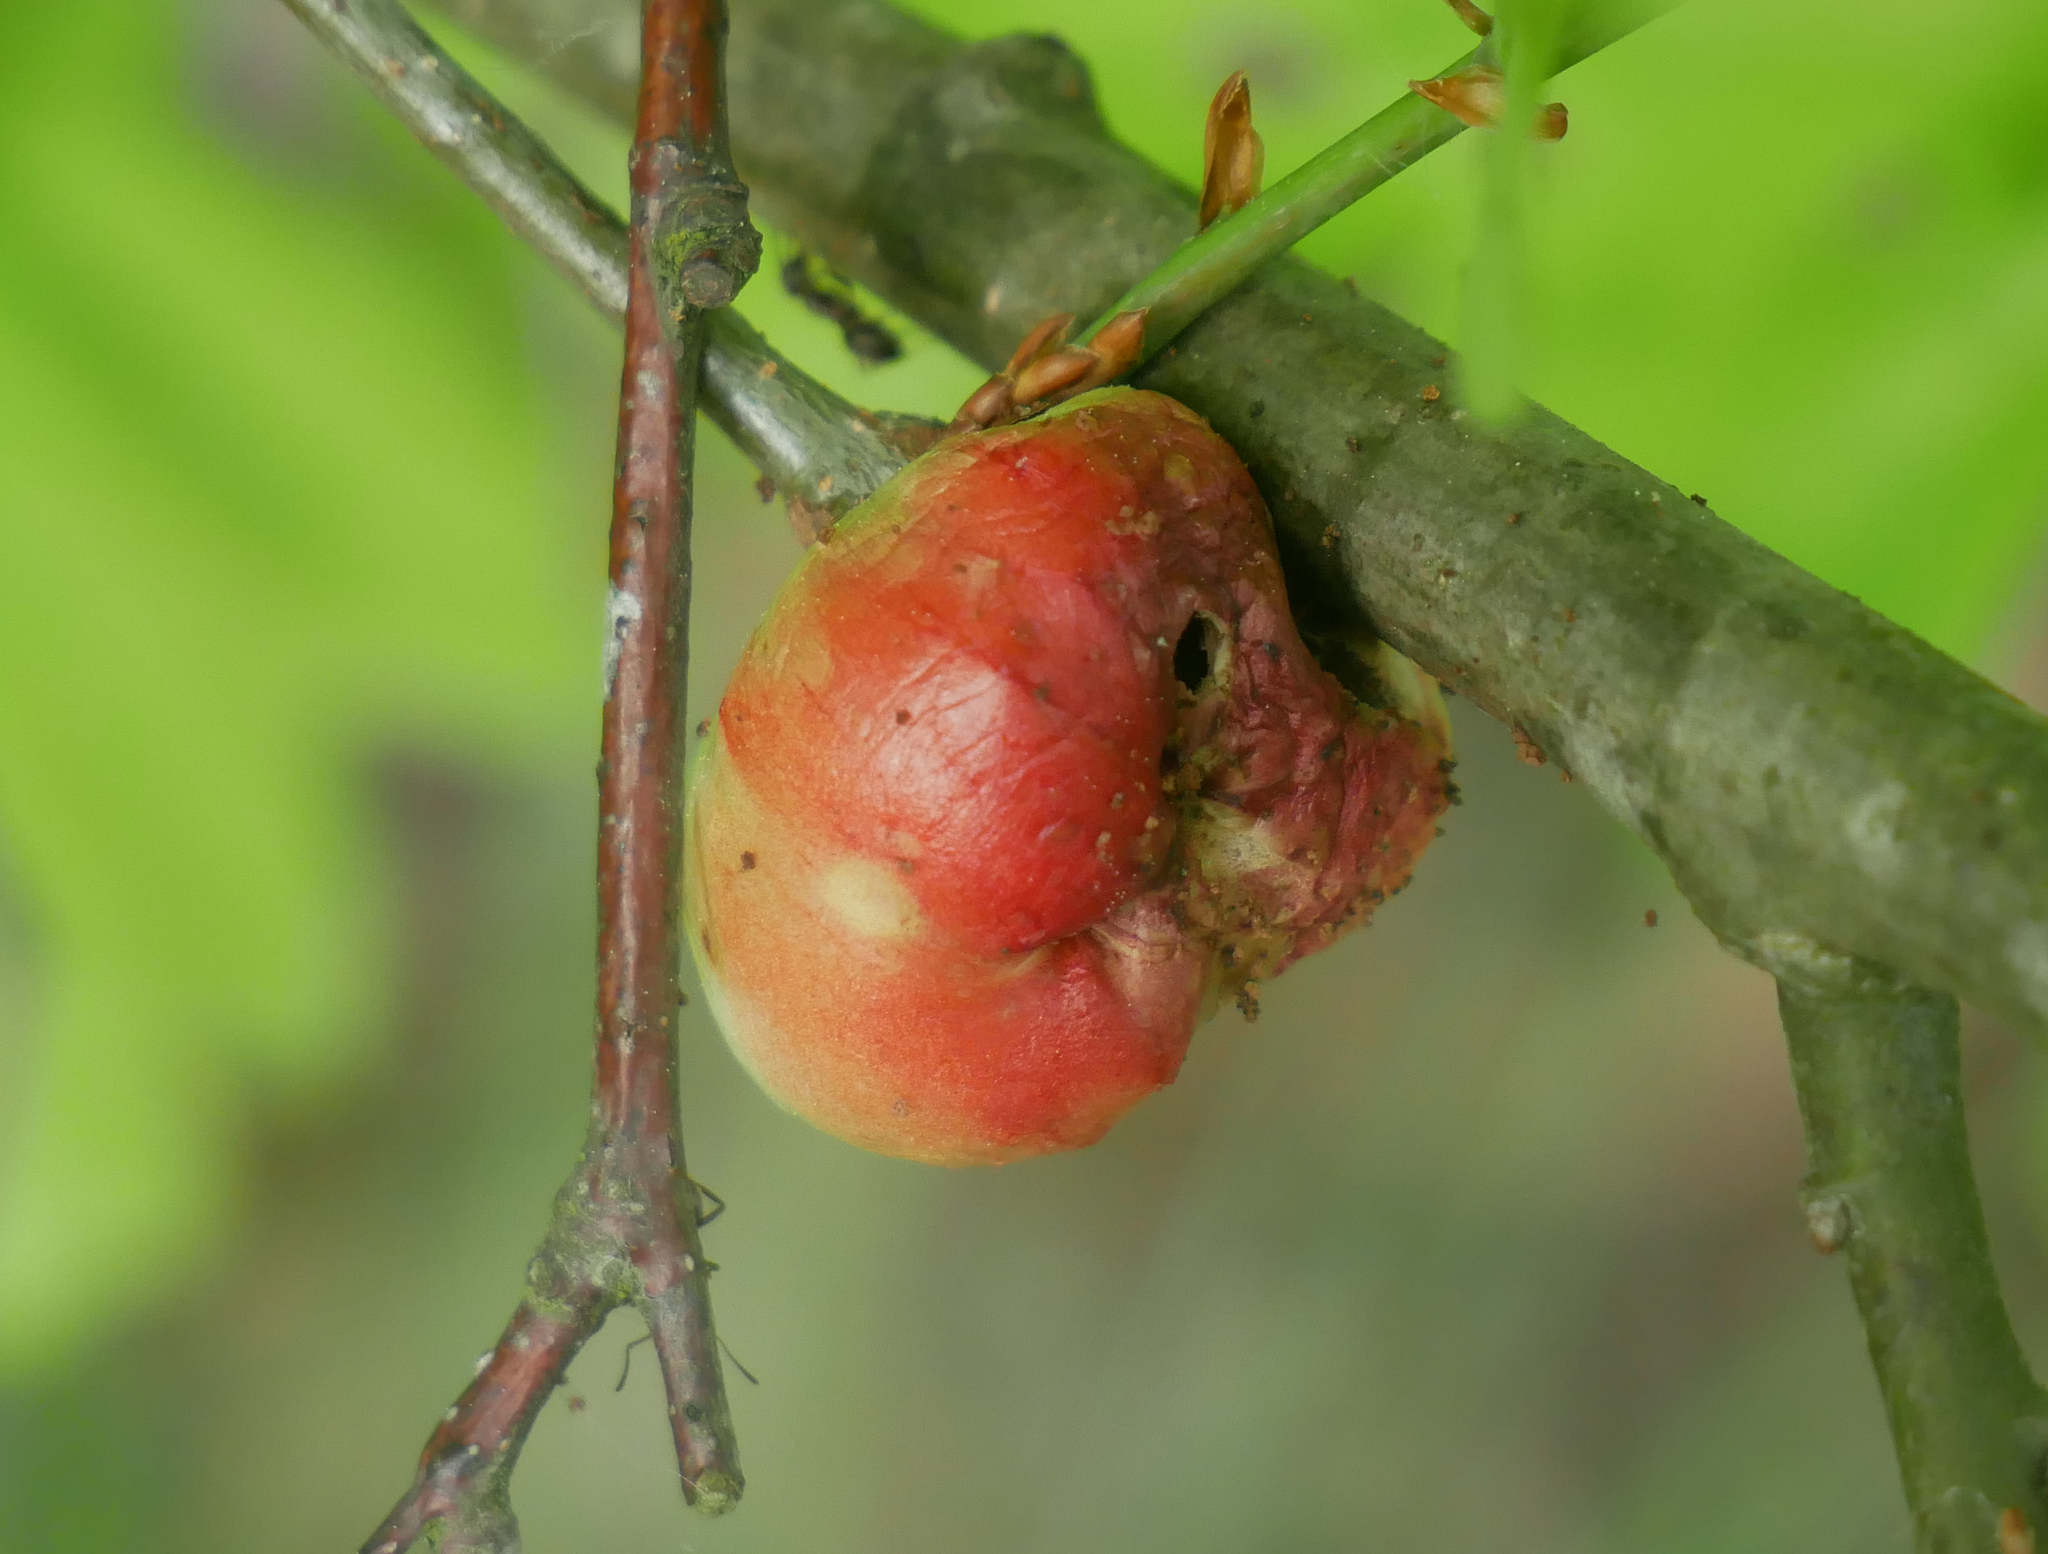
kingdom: Animalia
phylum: Arthropoda
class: Insecta
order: Hymenoptera
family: Cynipidae
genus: Biorhiza
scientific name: Biorhiza pallida
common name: Oak apple
